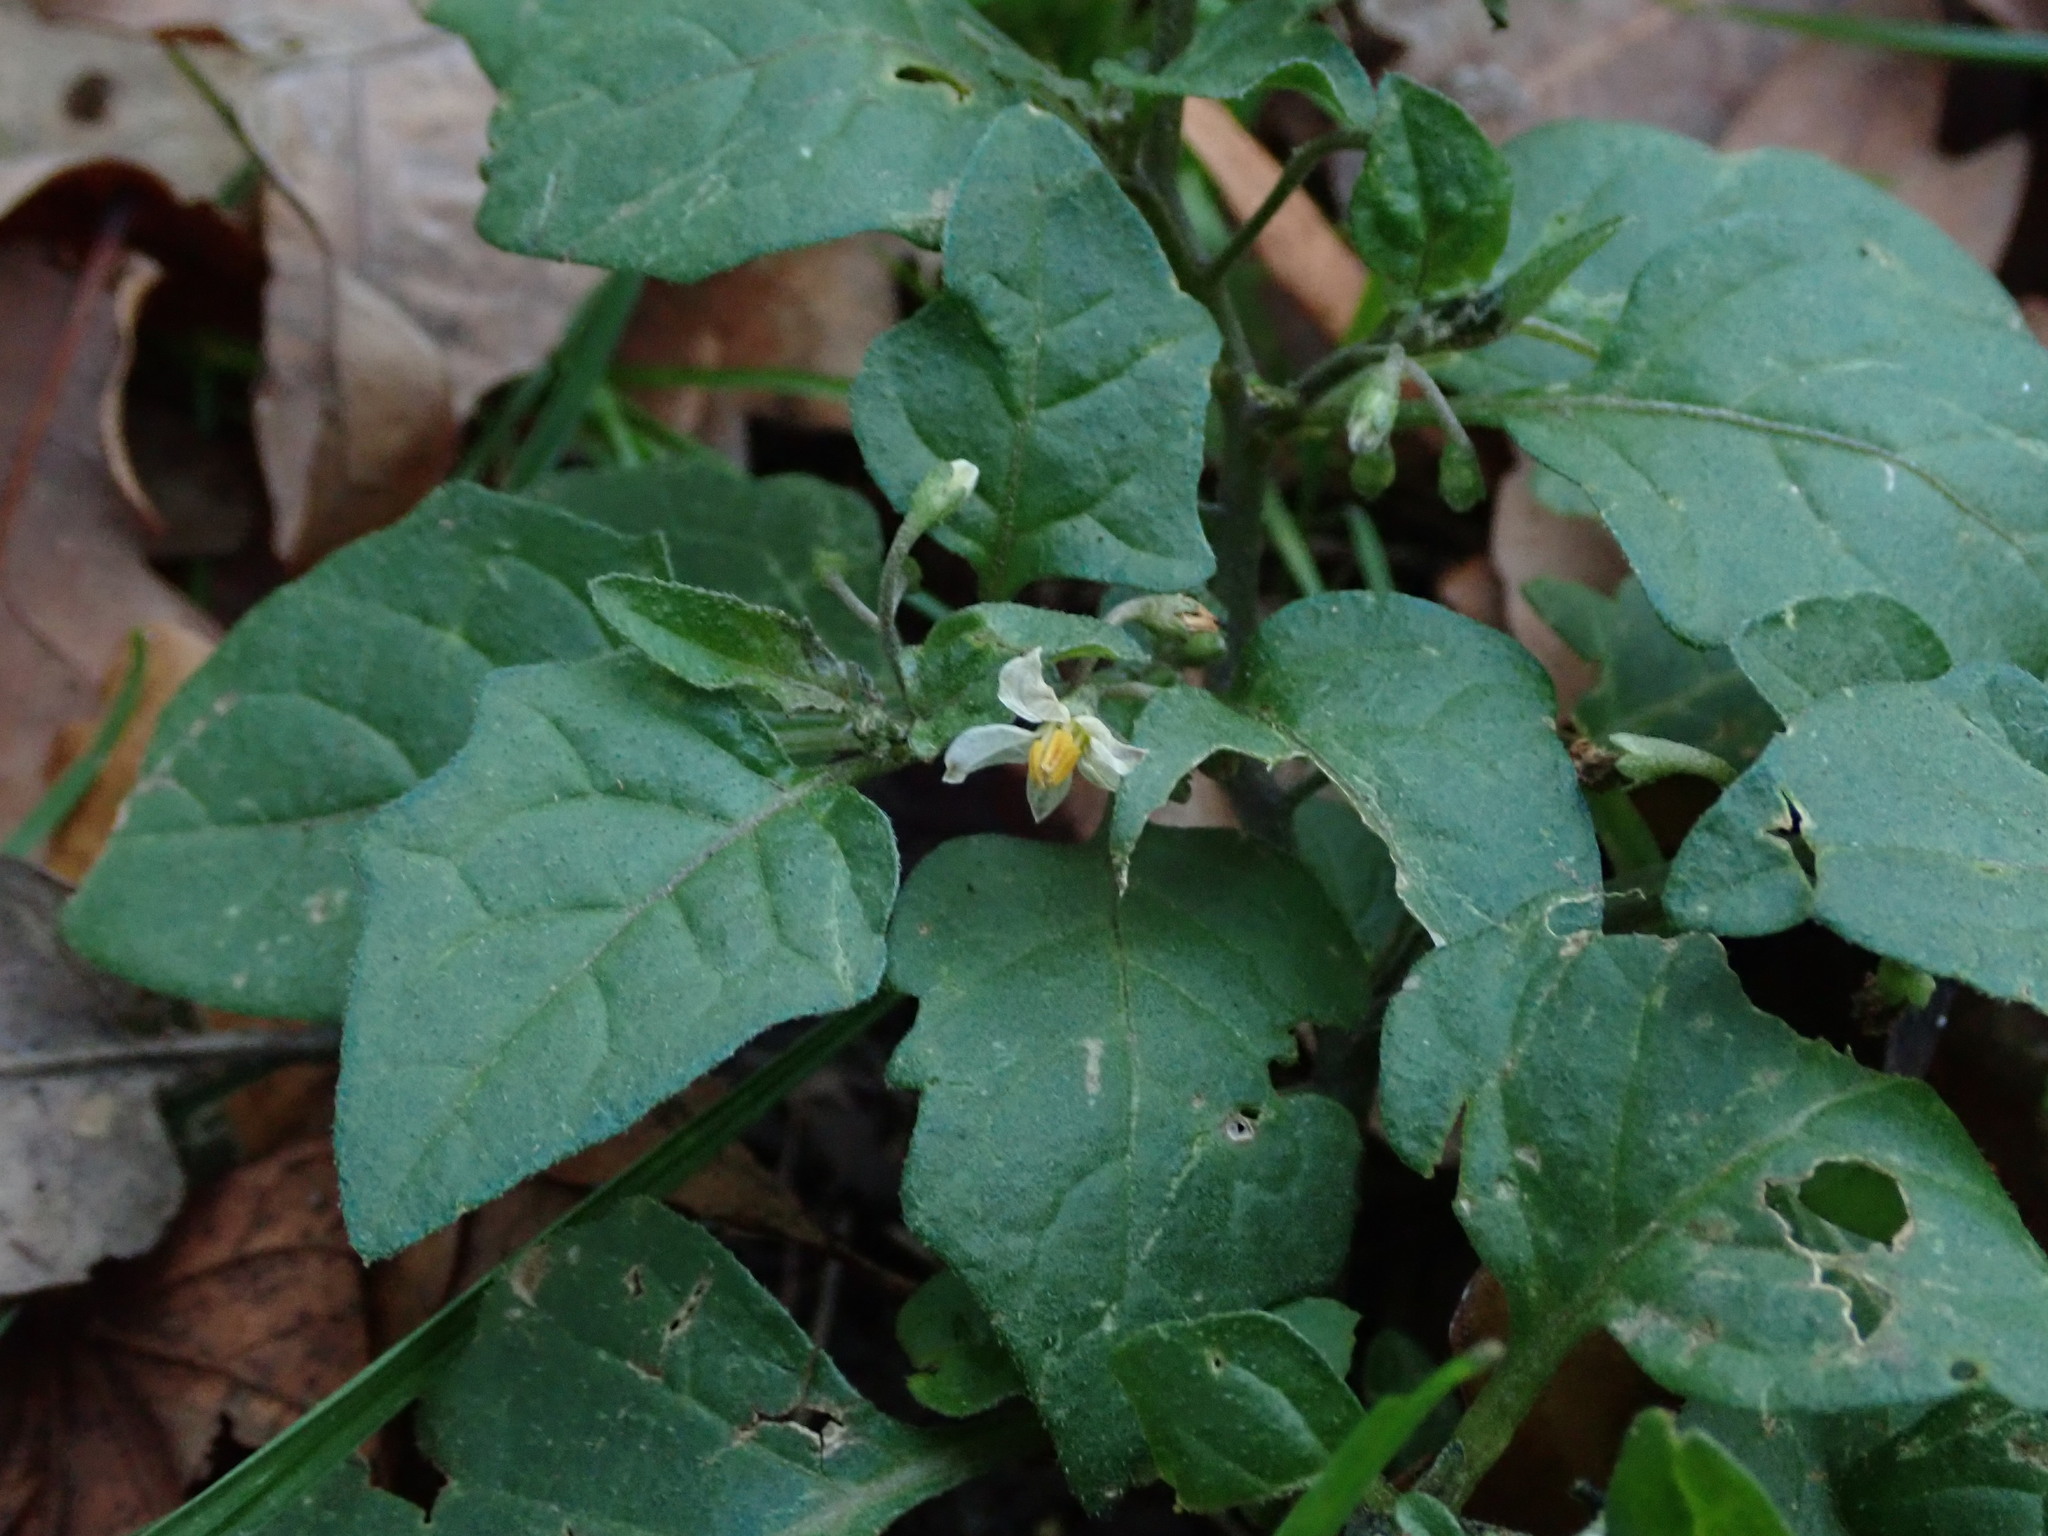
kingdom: Plantae
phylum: Tracheophyta
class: Magnoliopsida
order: Solanales
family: Solanaceae
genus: Solanum
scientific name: Solanum nigrum
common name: Black nightshade
